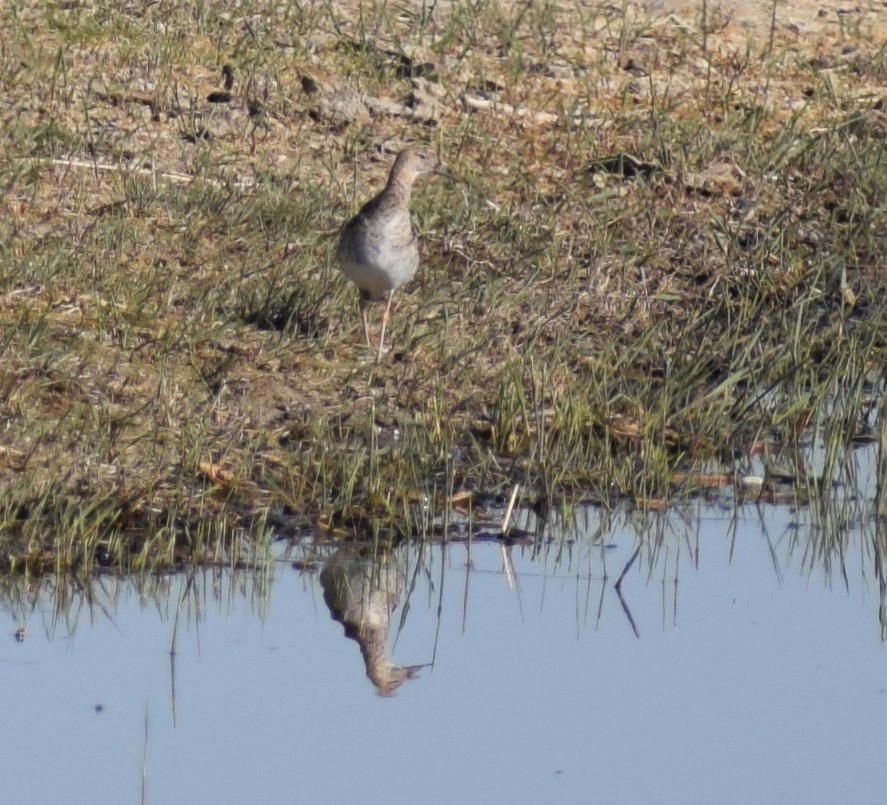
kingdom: Animalia
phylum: Chordata
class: Aves
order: Charadriiformes
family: Scolopacidae
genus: Calidris
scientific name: Calidris pugnax
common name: Ruff
